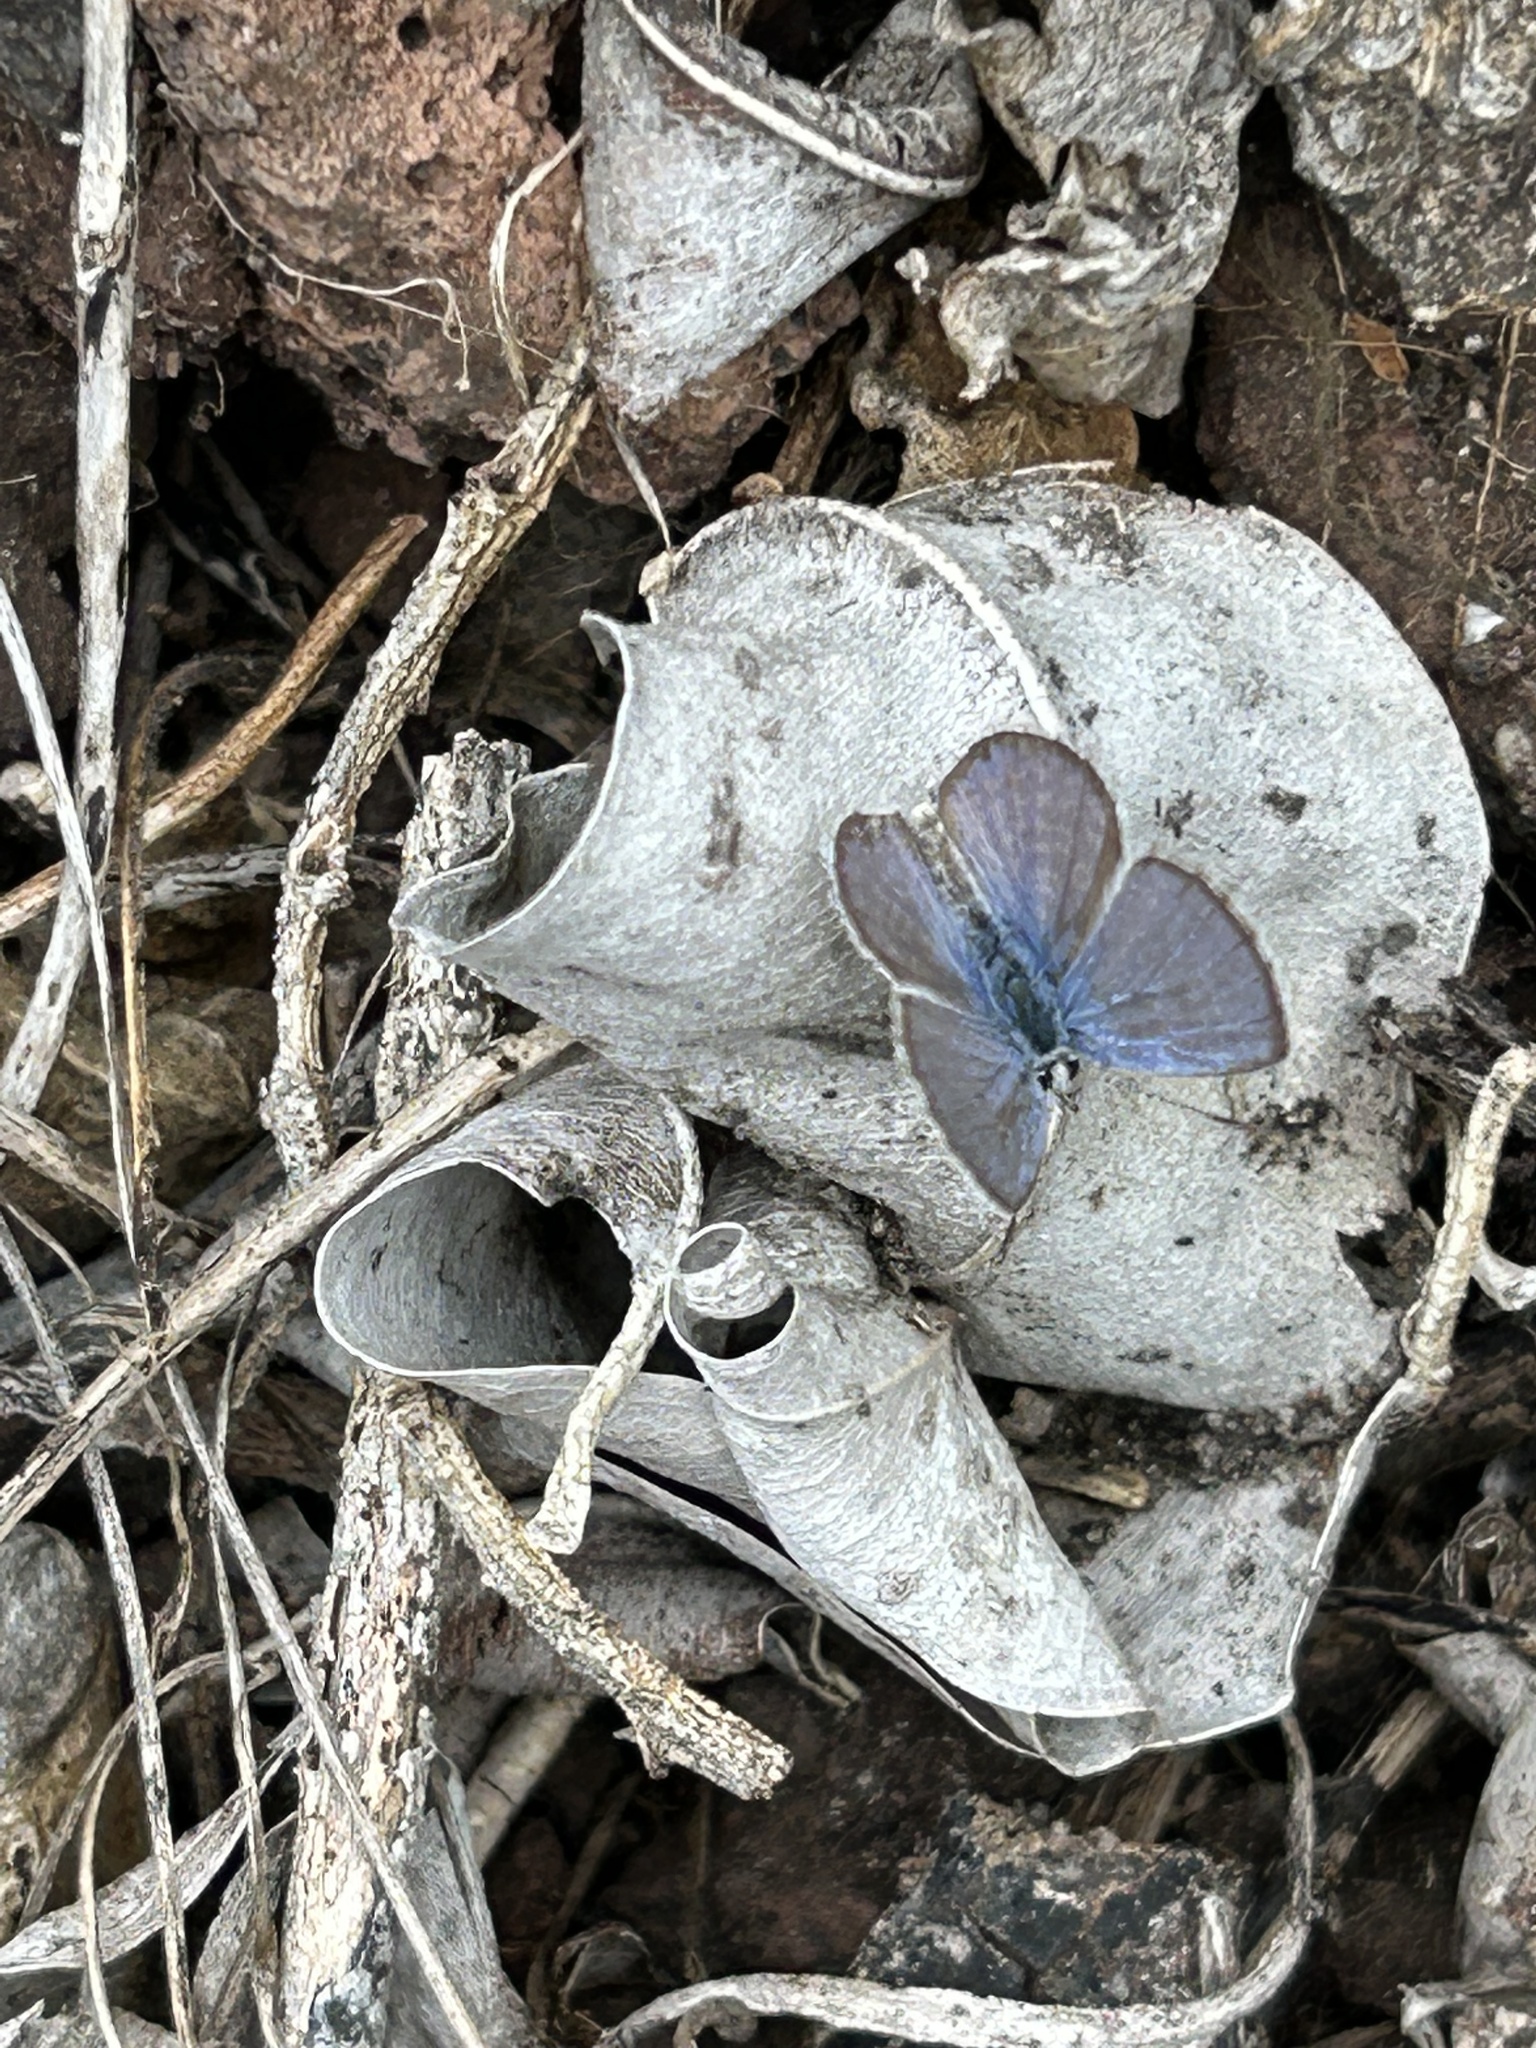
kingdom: Animalia
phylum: Arthropoda
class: Insecta
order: Lepidoptera
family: Lycaenidae
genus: Hemiargus
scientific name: Hemiargus ramon
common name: Ramon blue
